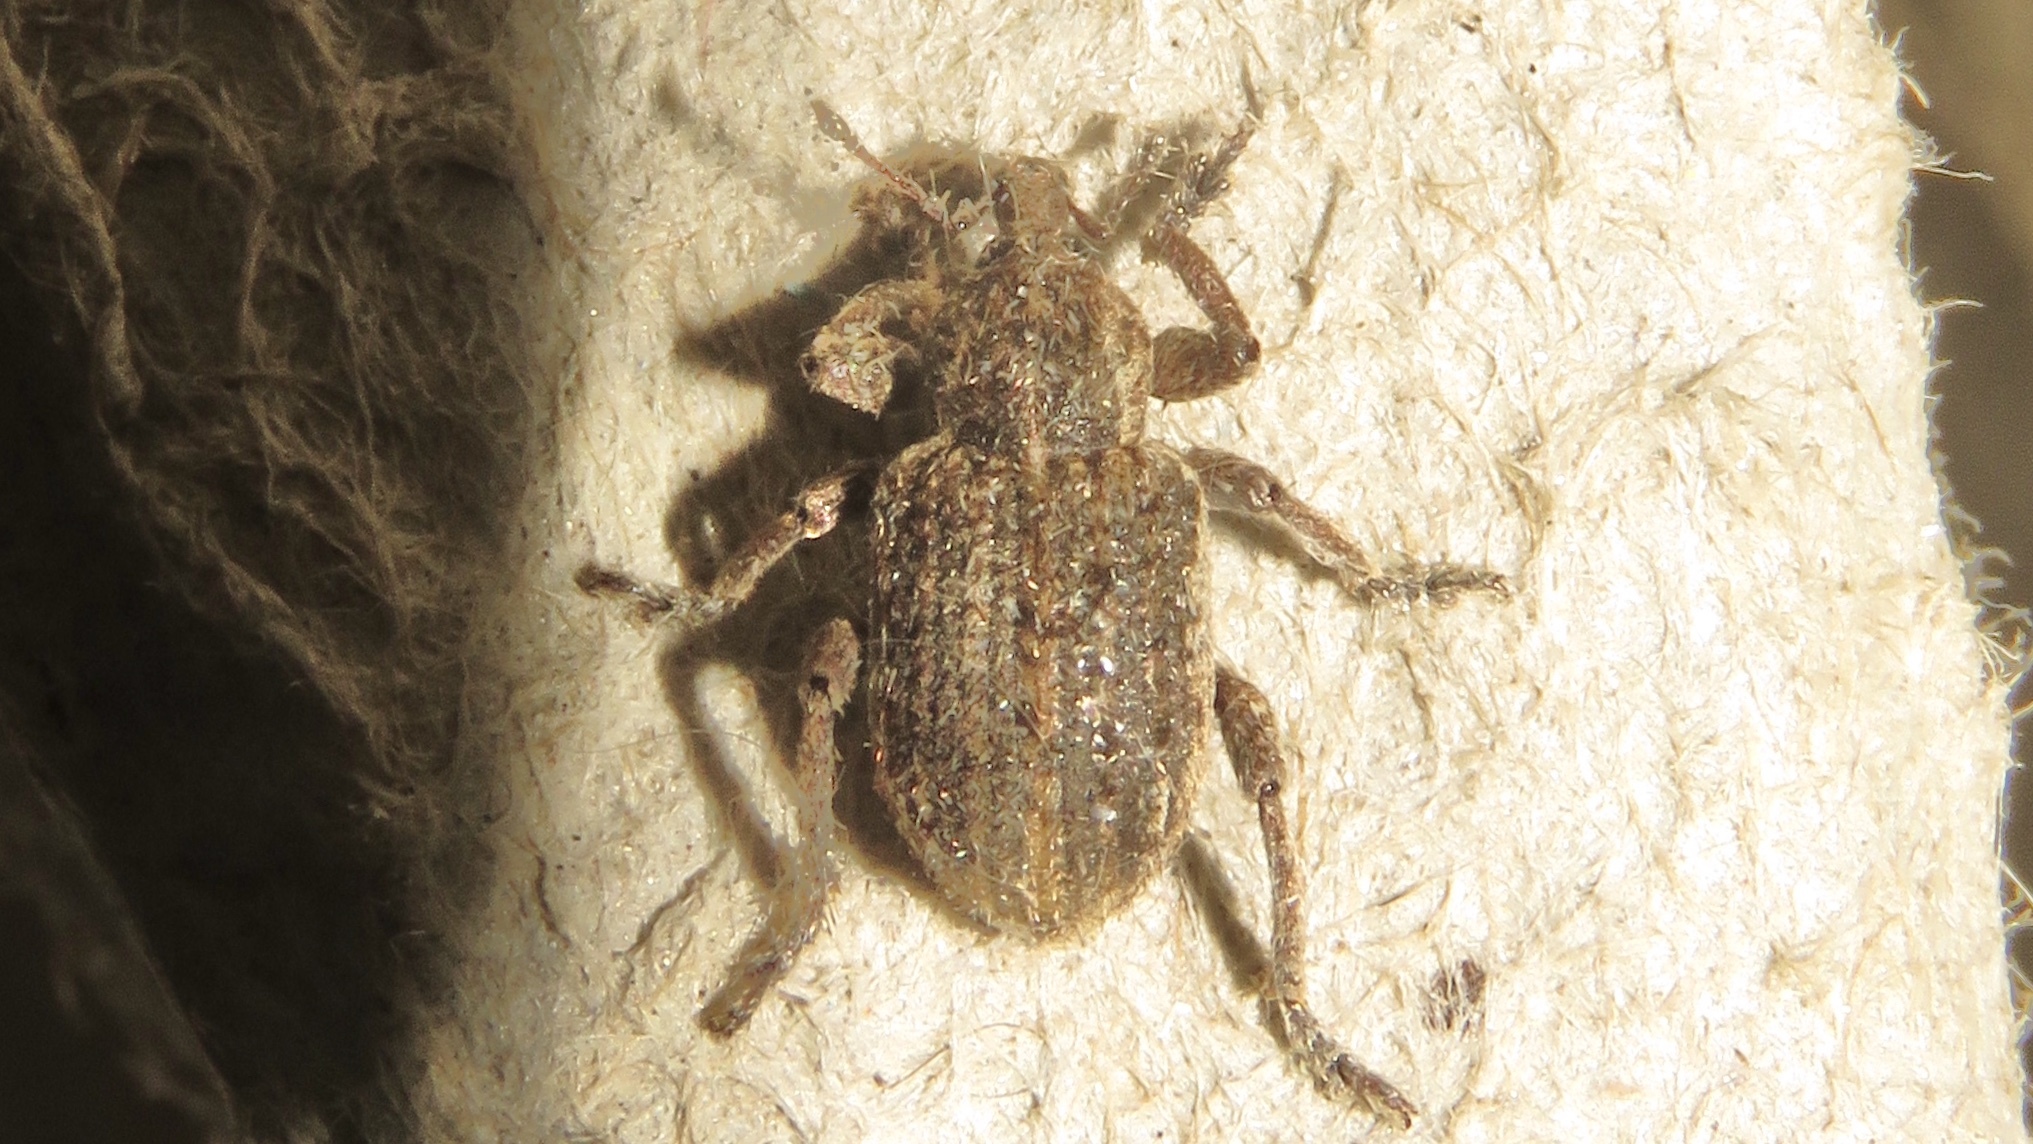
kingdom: Animalia
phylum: Arthropoda
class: Insecta
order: Coleoptera
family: Curculionidae
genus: Brachypera
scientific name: Brachypera zoilus
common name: Clover leaf weevil
